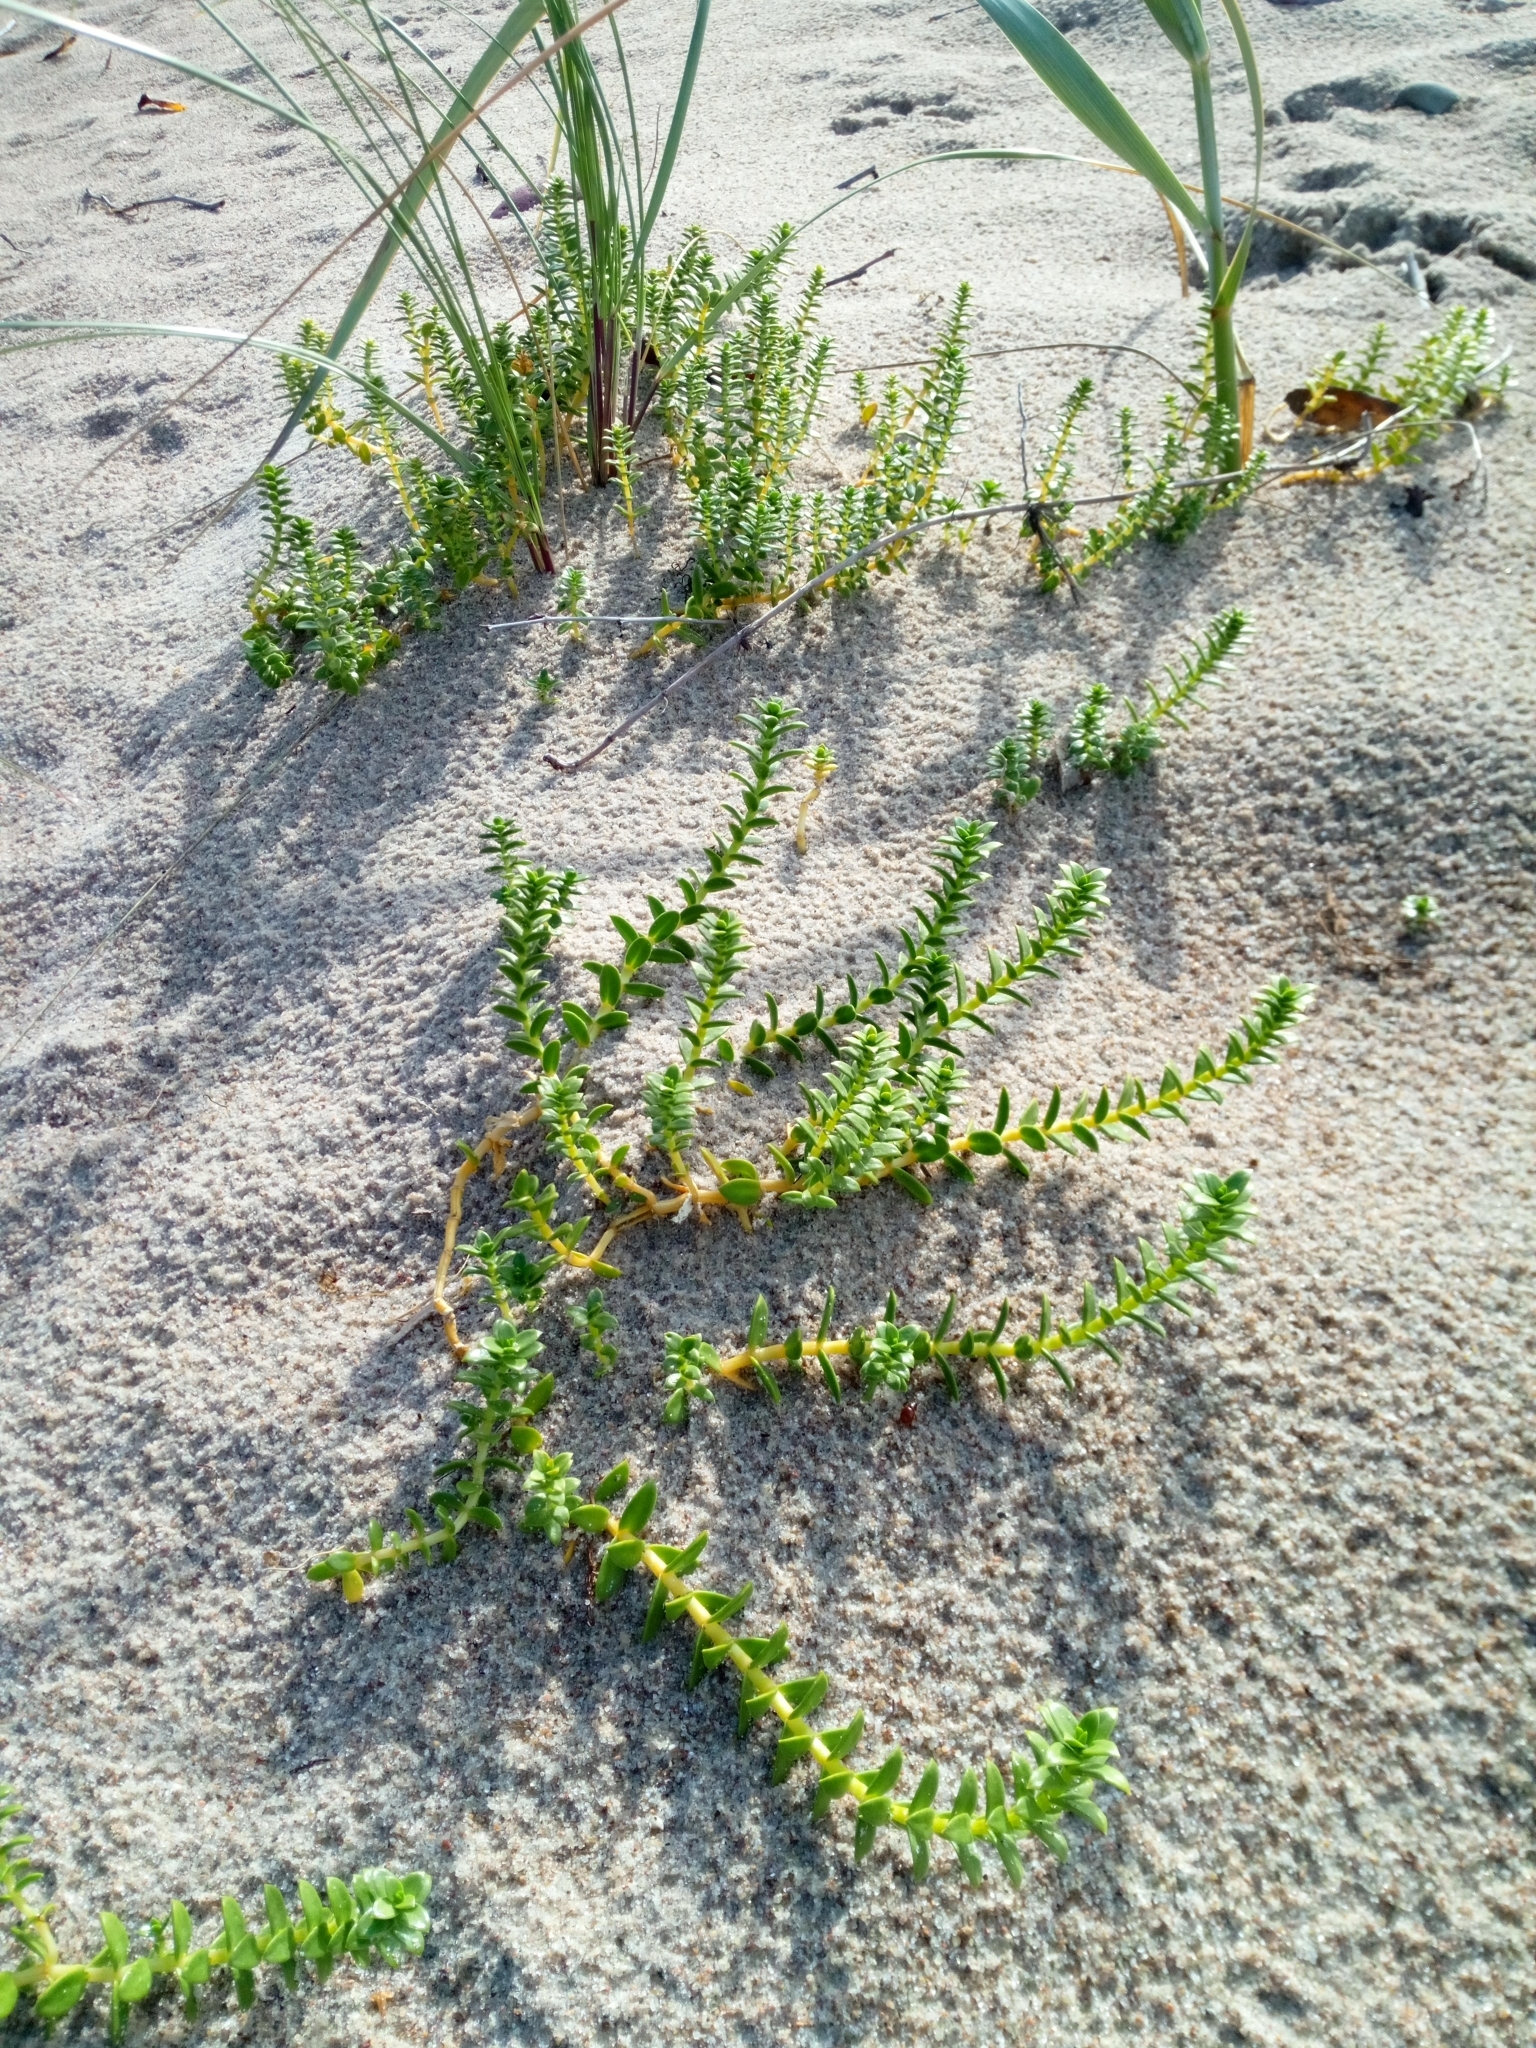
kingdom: Plantae
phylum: Tracheophyta
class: Magnoliopsida
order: Caryophyllales
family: Caryophyllaceae
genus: Honckenya
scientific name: Honckenya peploides
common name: Sea sandwort
